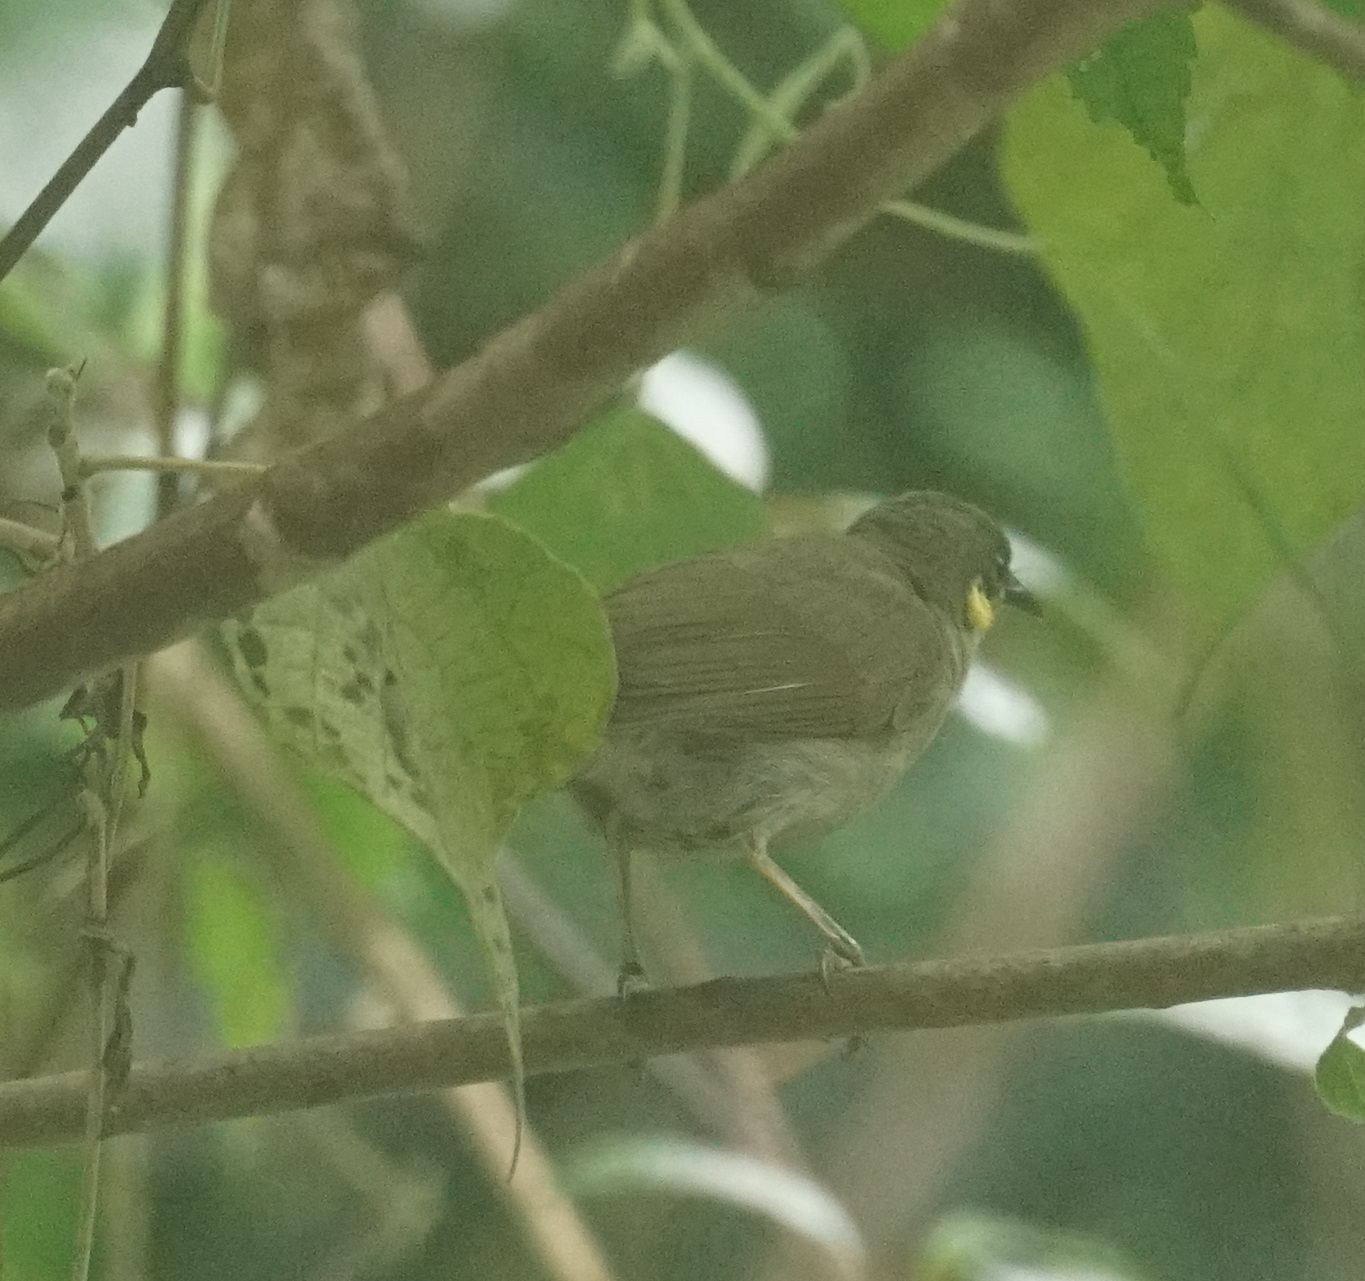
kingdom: Animalia
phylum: Chordata
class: Aves
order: Passeriformes
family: Meliphagidae
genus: Microptilotis
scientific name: Microptilotis imitatrix
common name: Cryptic honeyeater
